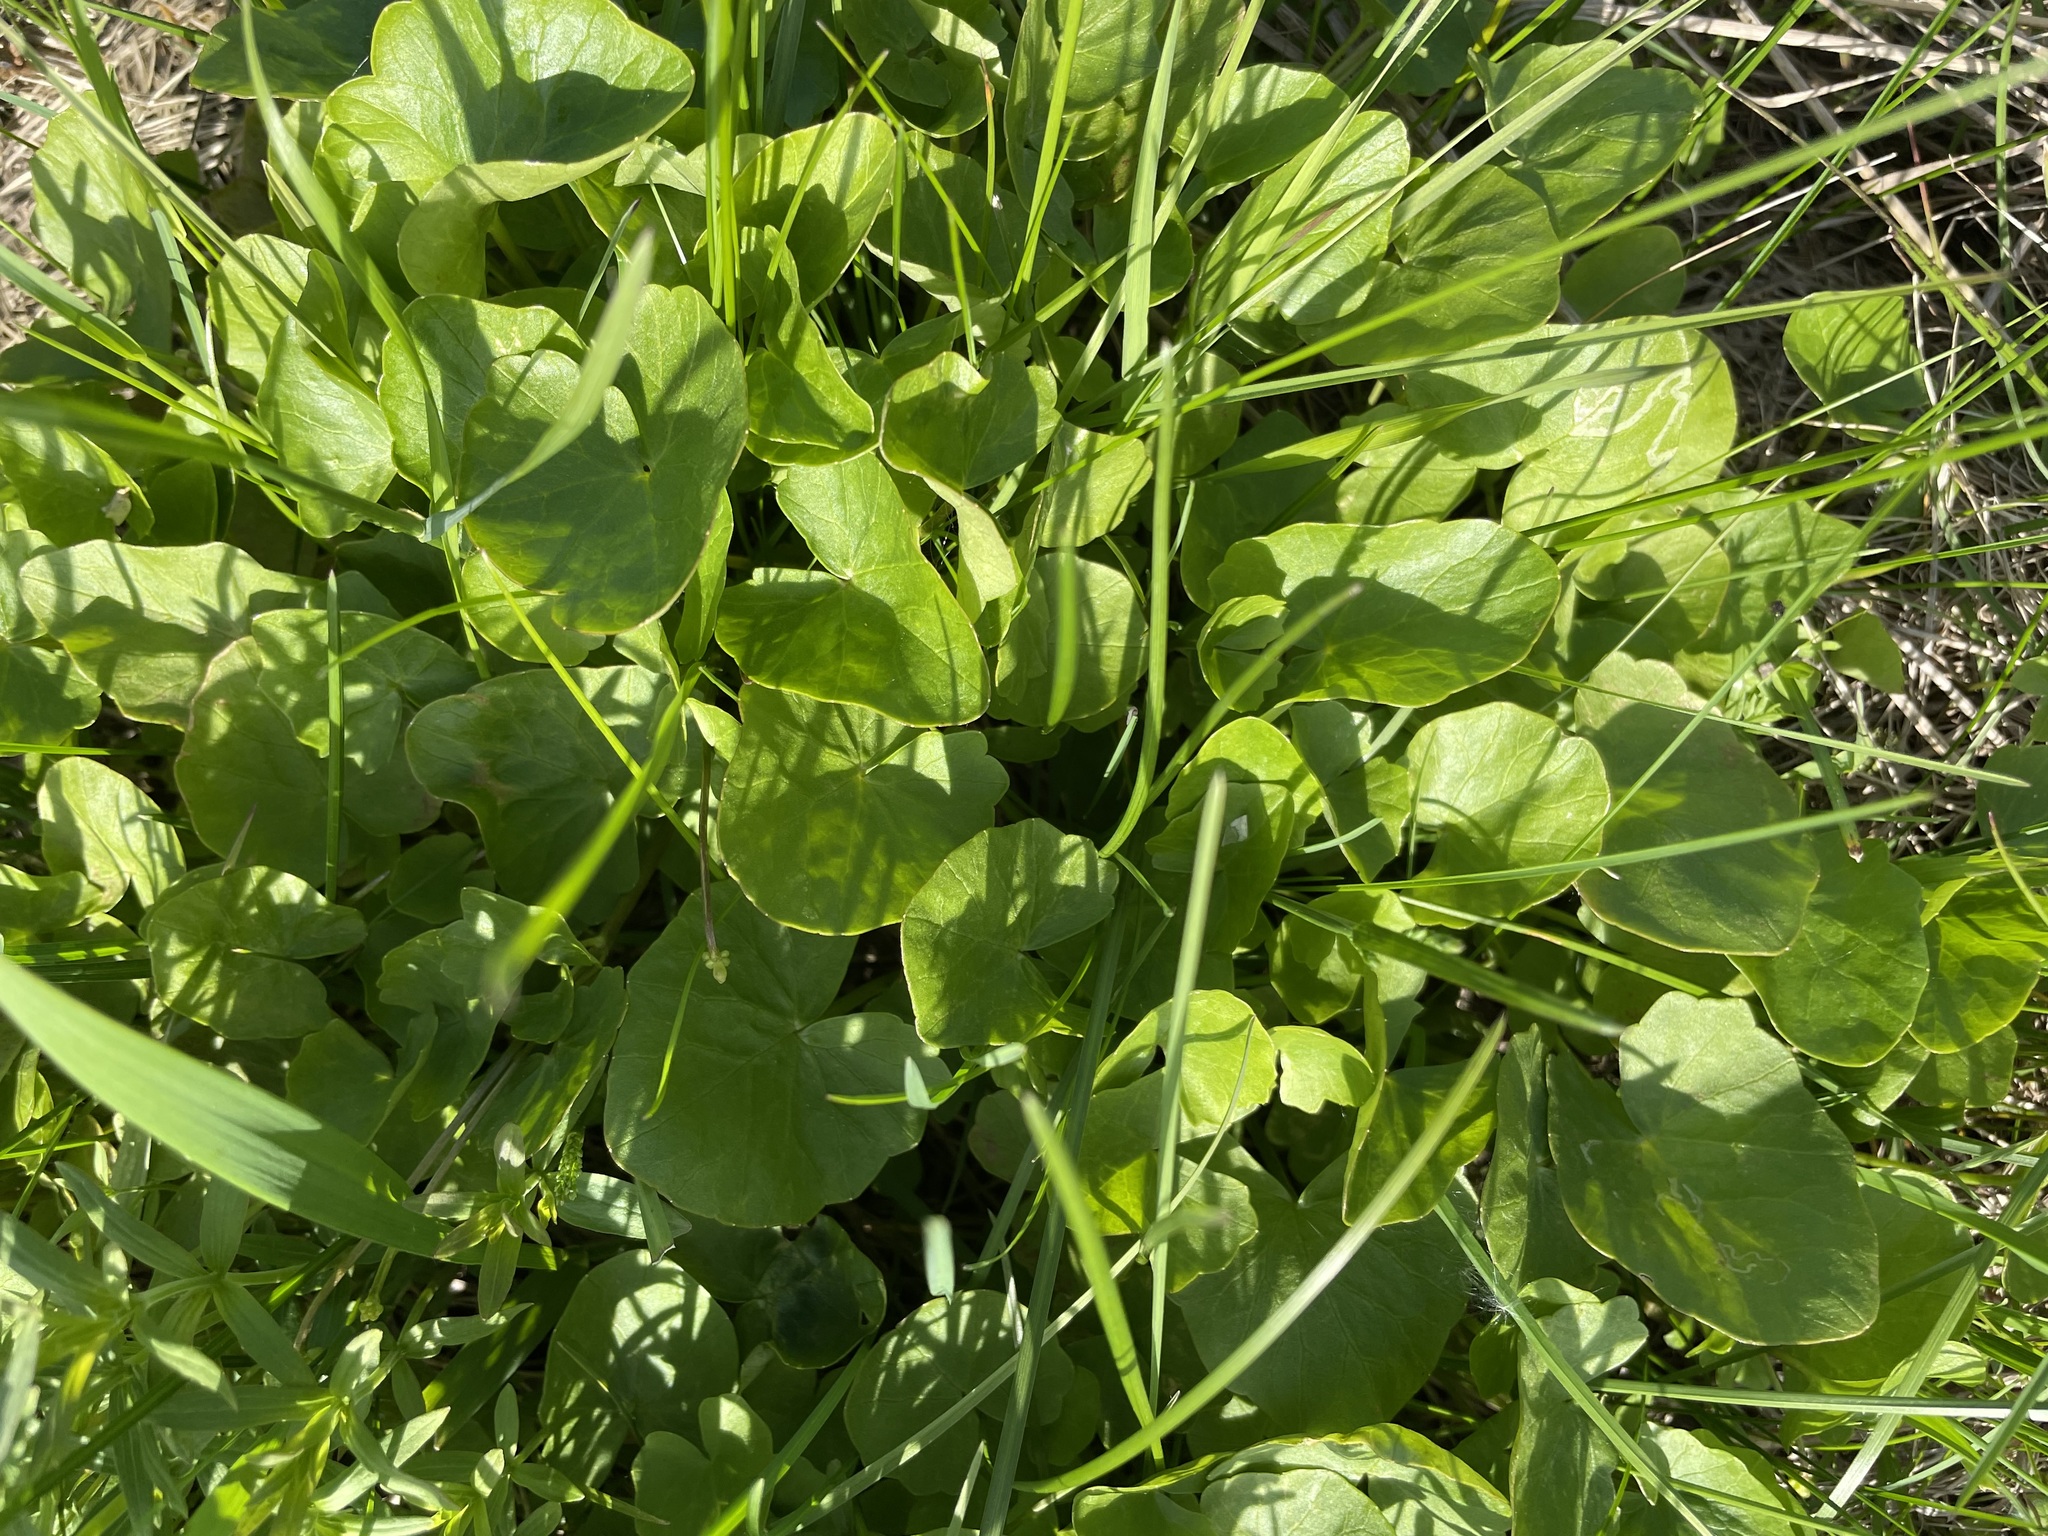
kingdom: Plantae
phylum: Tracheophyta
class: Magnoliopsida
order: Ranunculales
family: Ranunculaceae
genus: Ficaria
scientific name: Ficaria verna
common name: Lesser celandine
